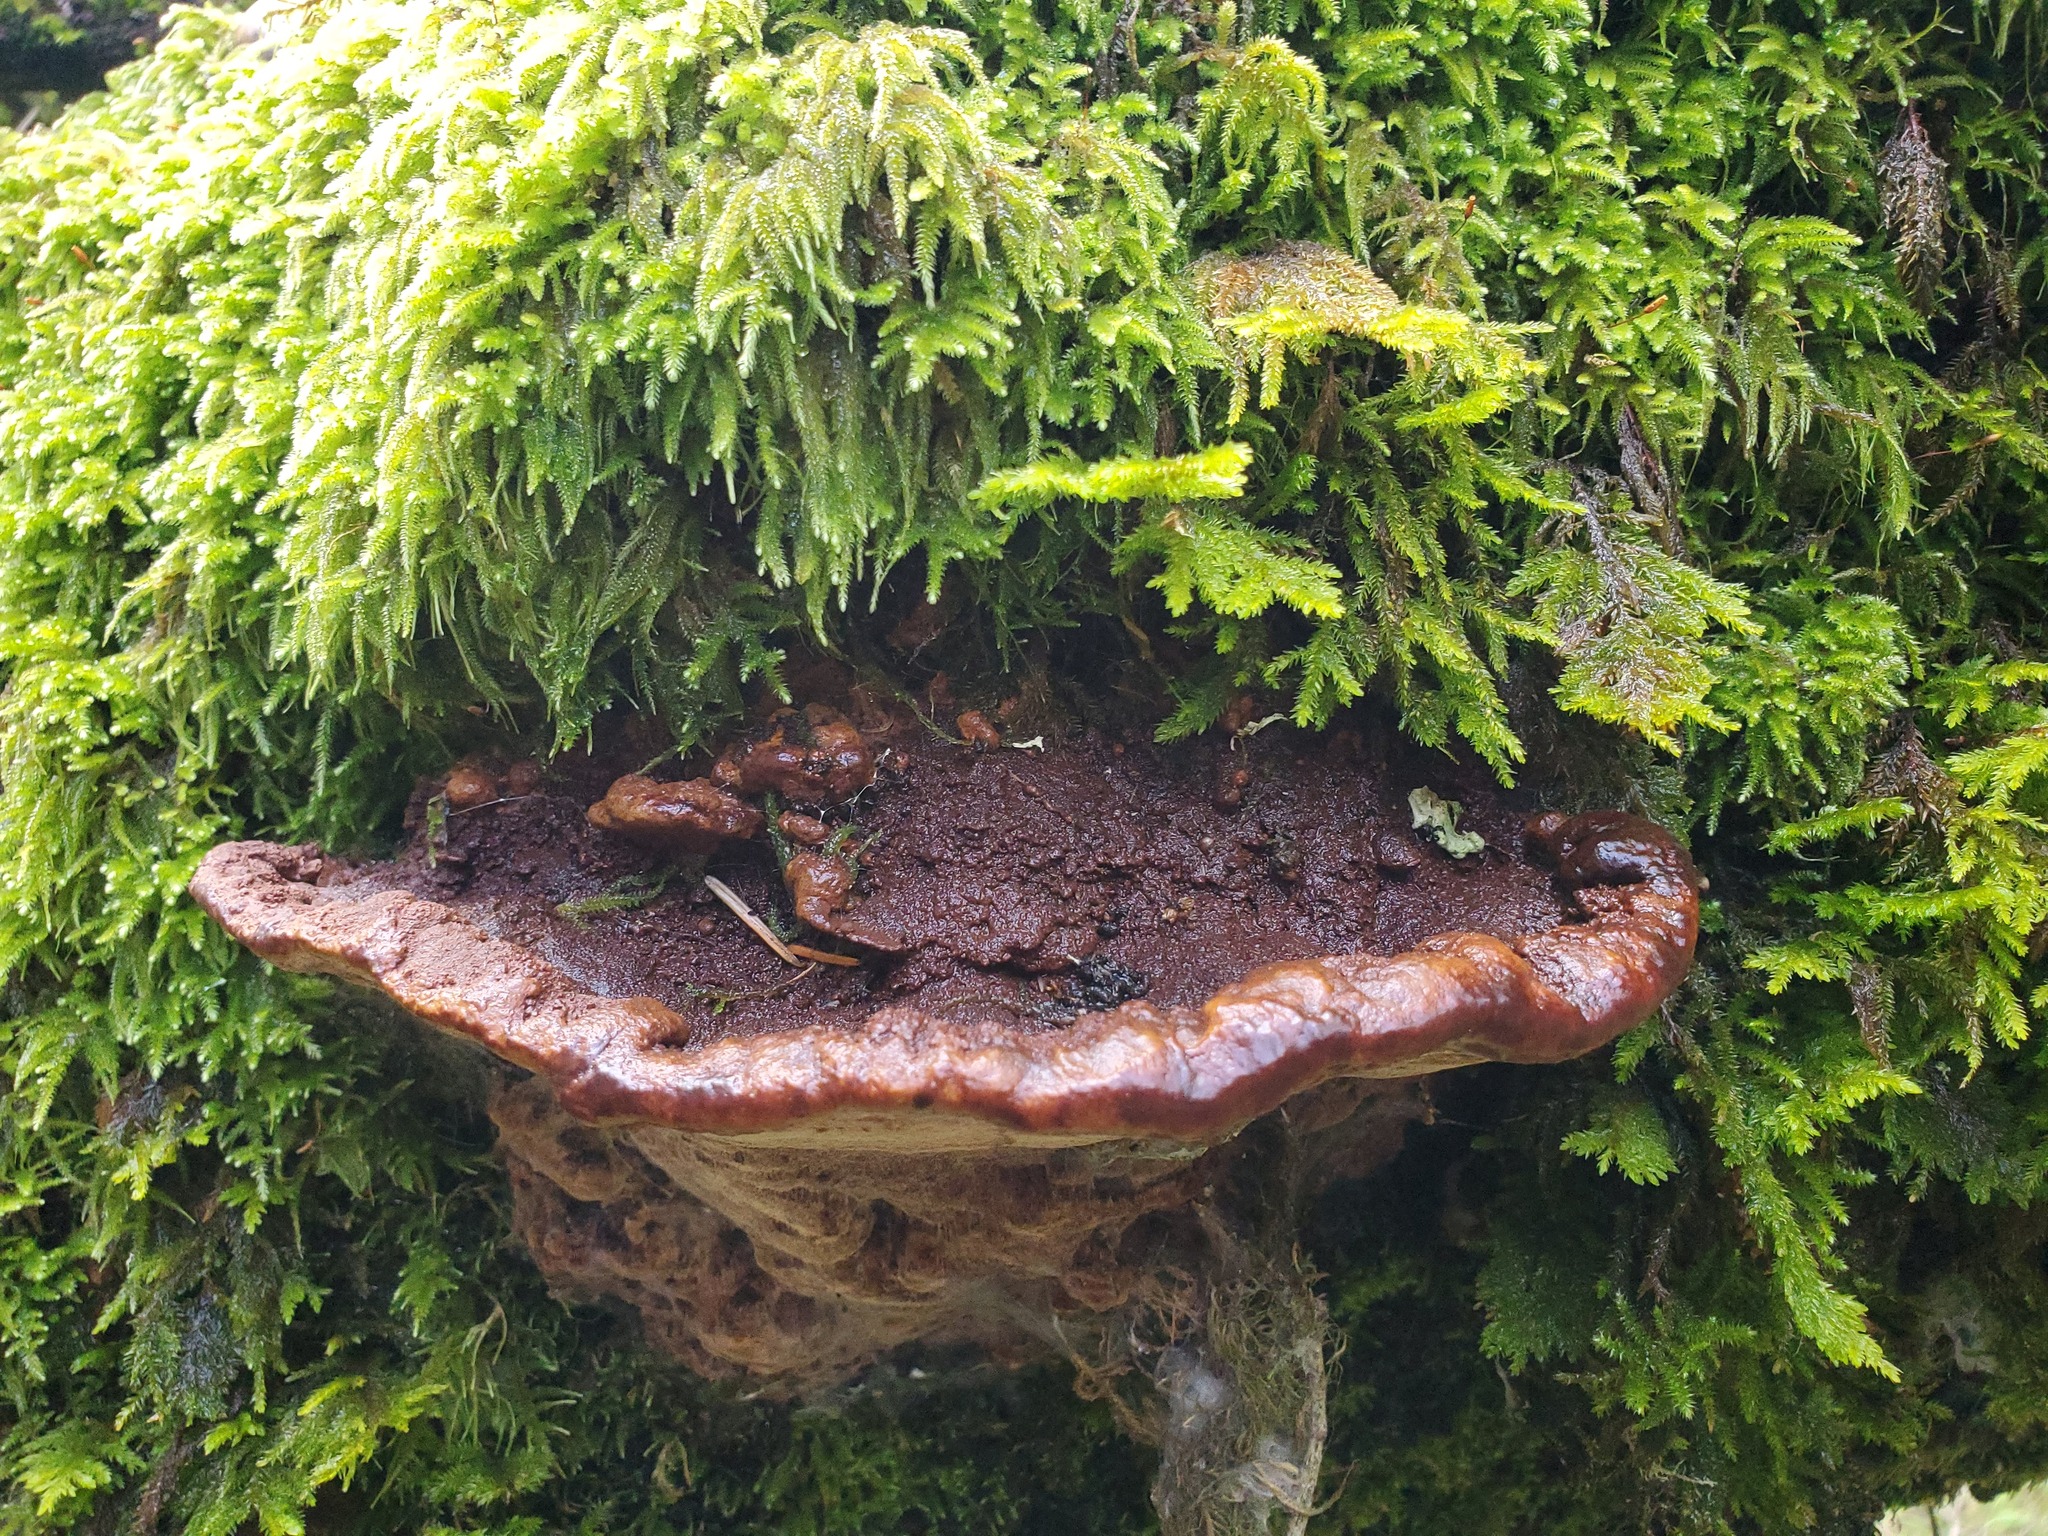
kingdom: Fungi
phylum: Basidiomycota
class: Agaricomycetes
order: Hymenochaetales
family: Hymenochaetaceae
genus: Porodaedalea
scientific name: Porodaedalea pini
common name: Pine bracket
